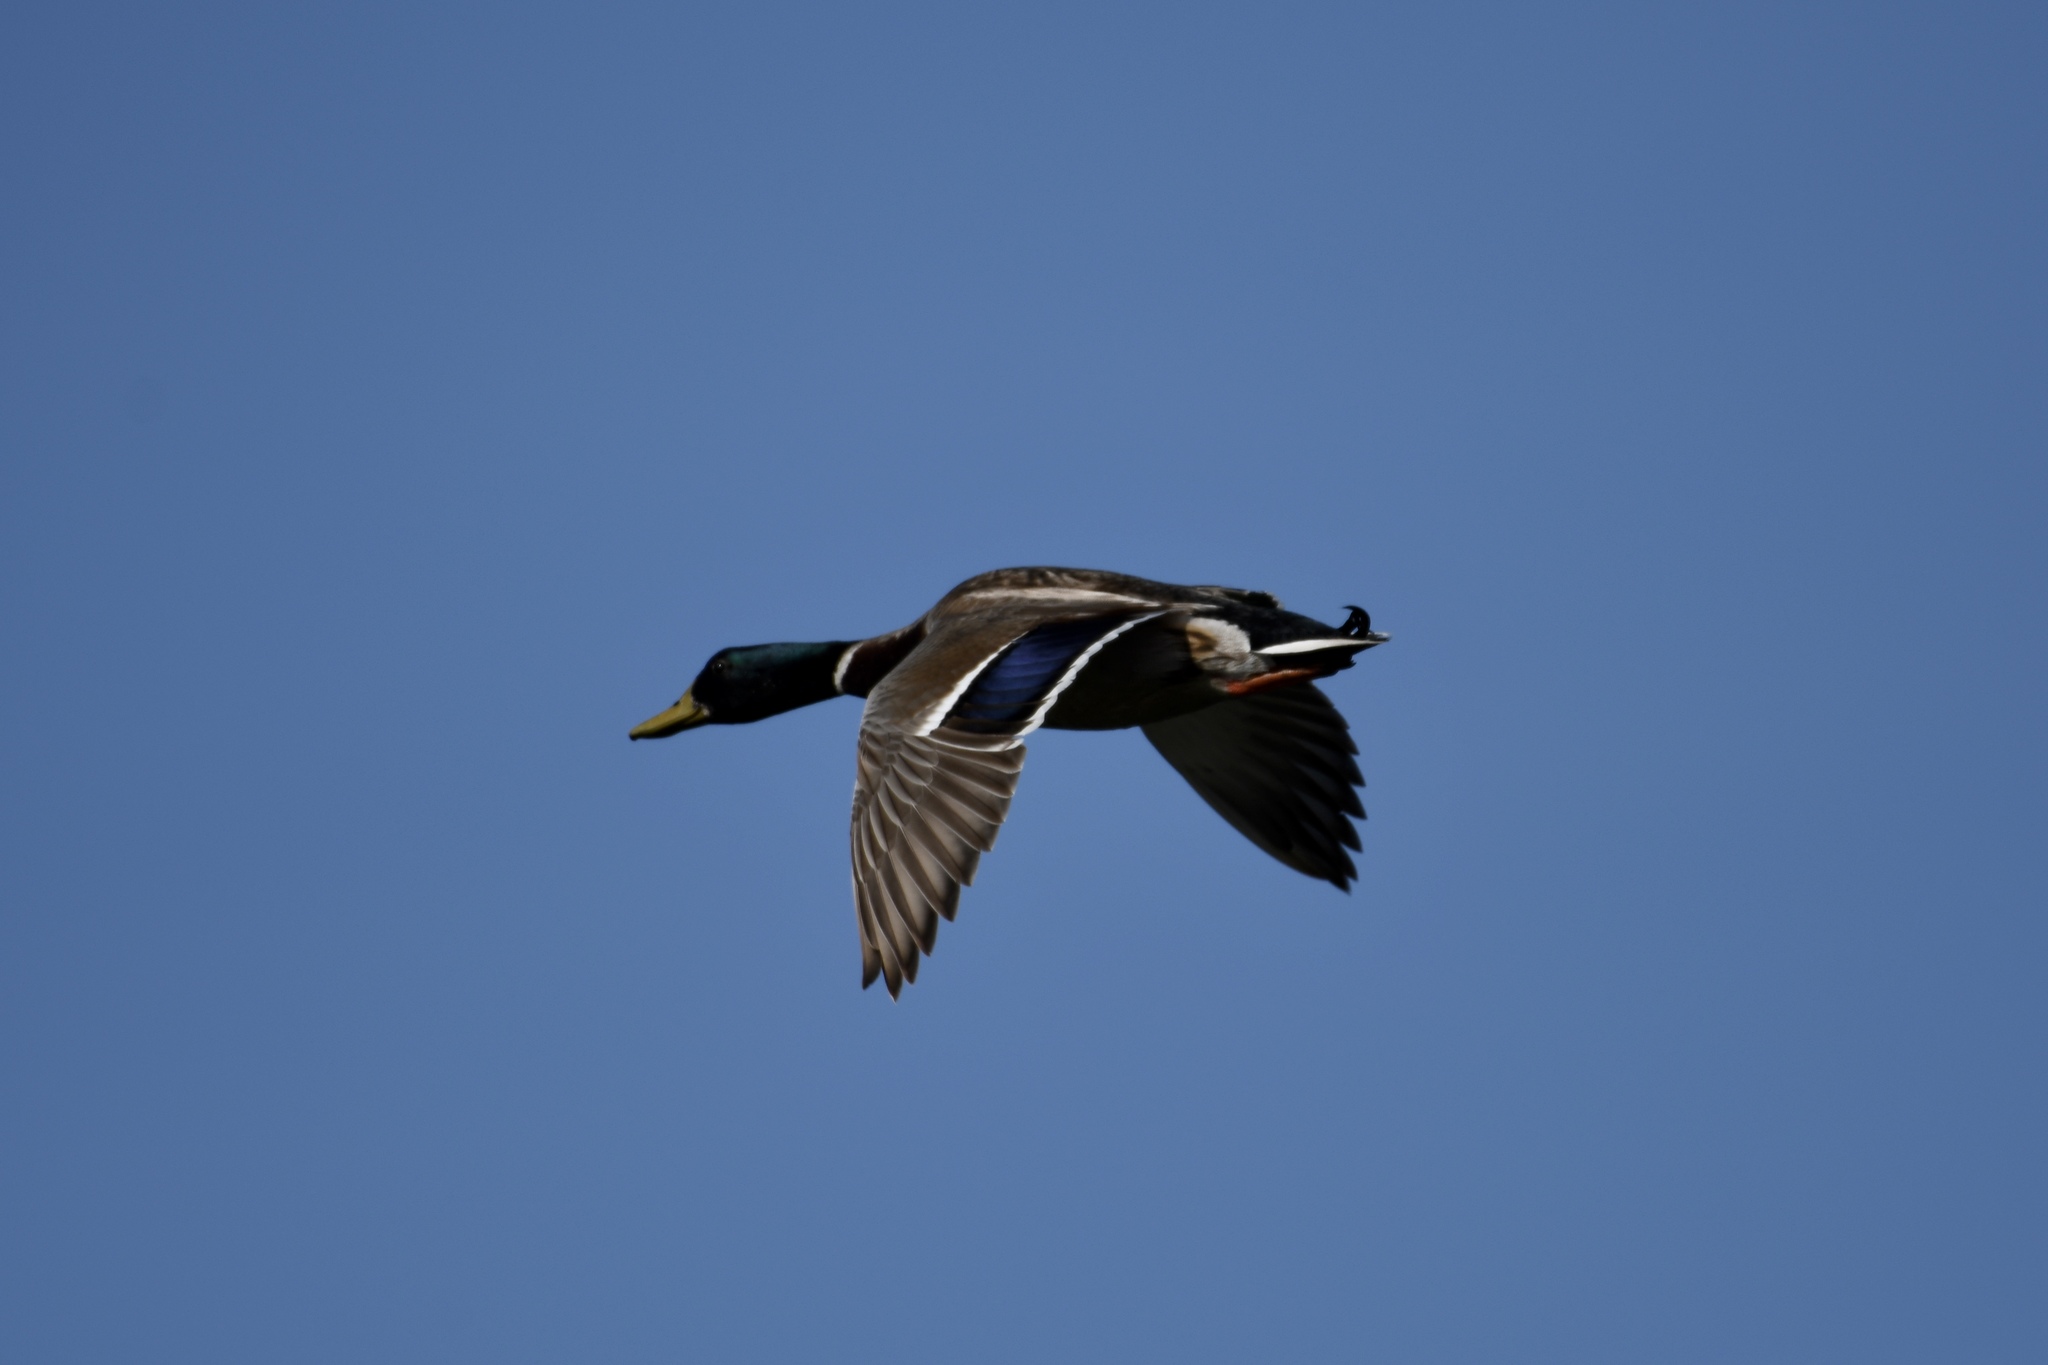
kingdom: Animalia
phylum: Chordata
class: Aves
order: Anseriformes
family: Anatidae
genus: Anas
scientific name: Anas platyrhynchos
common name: Mallard
